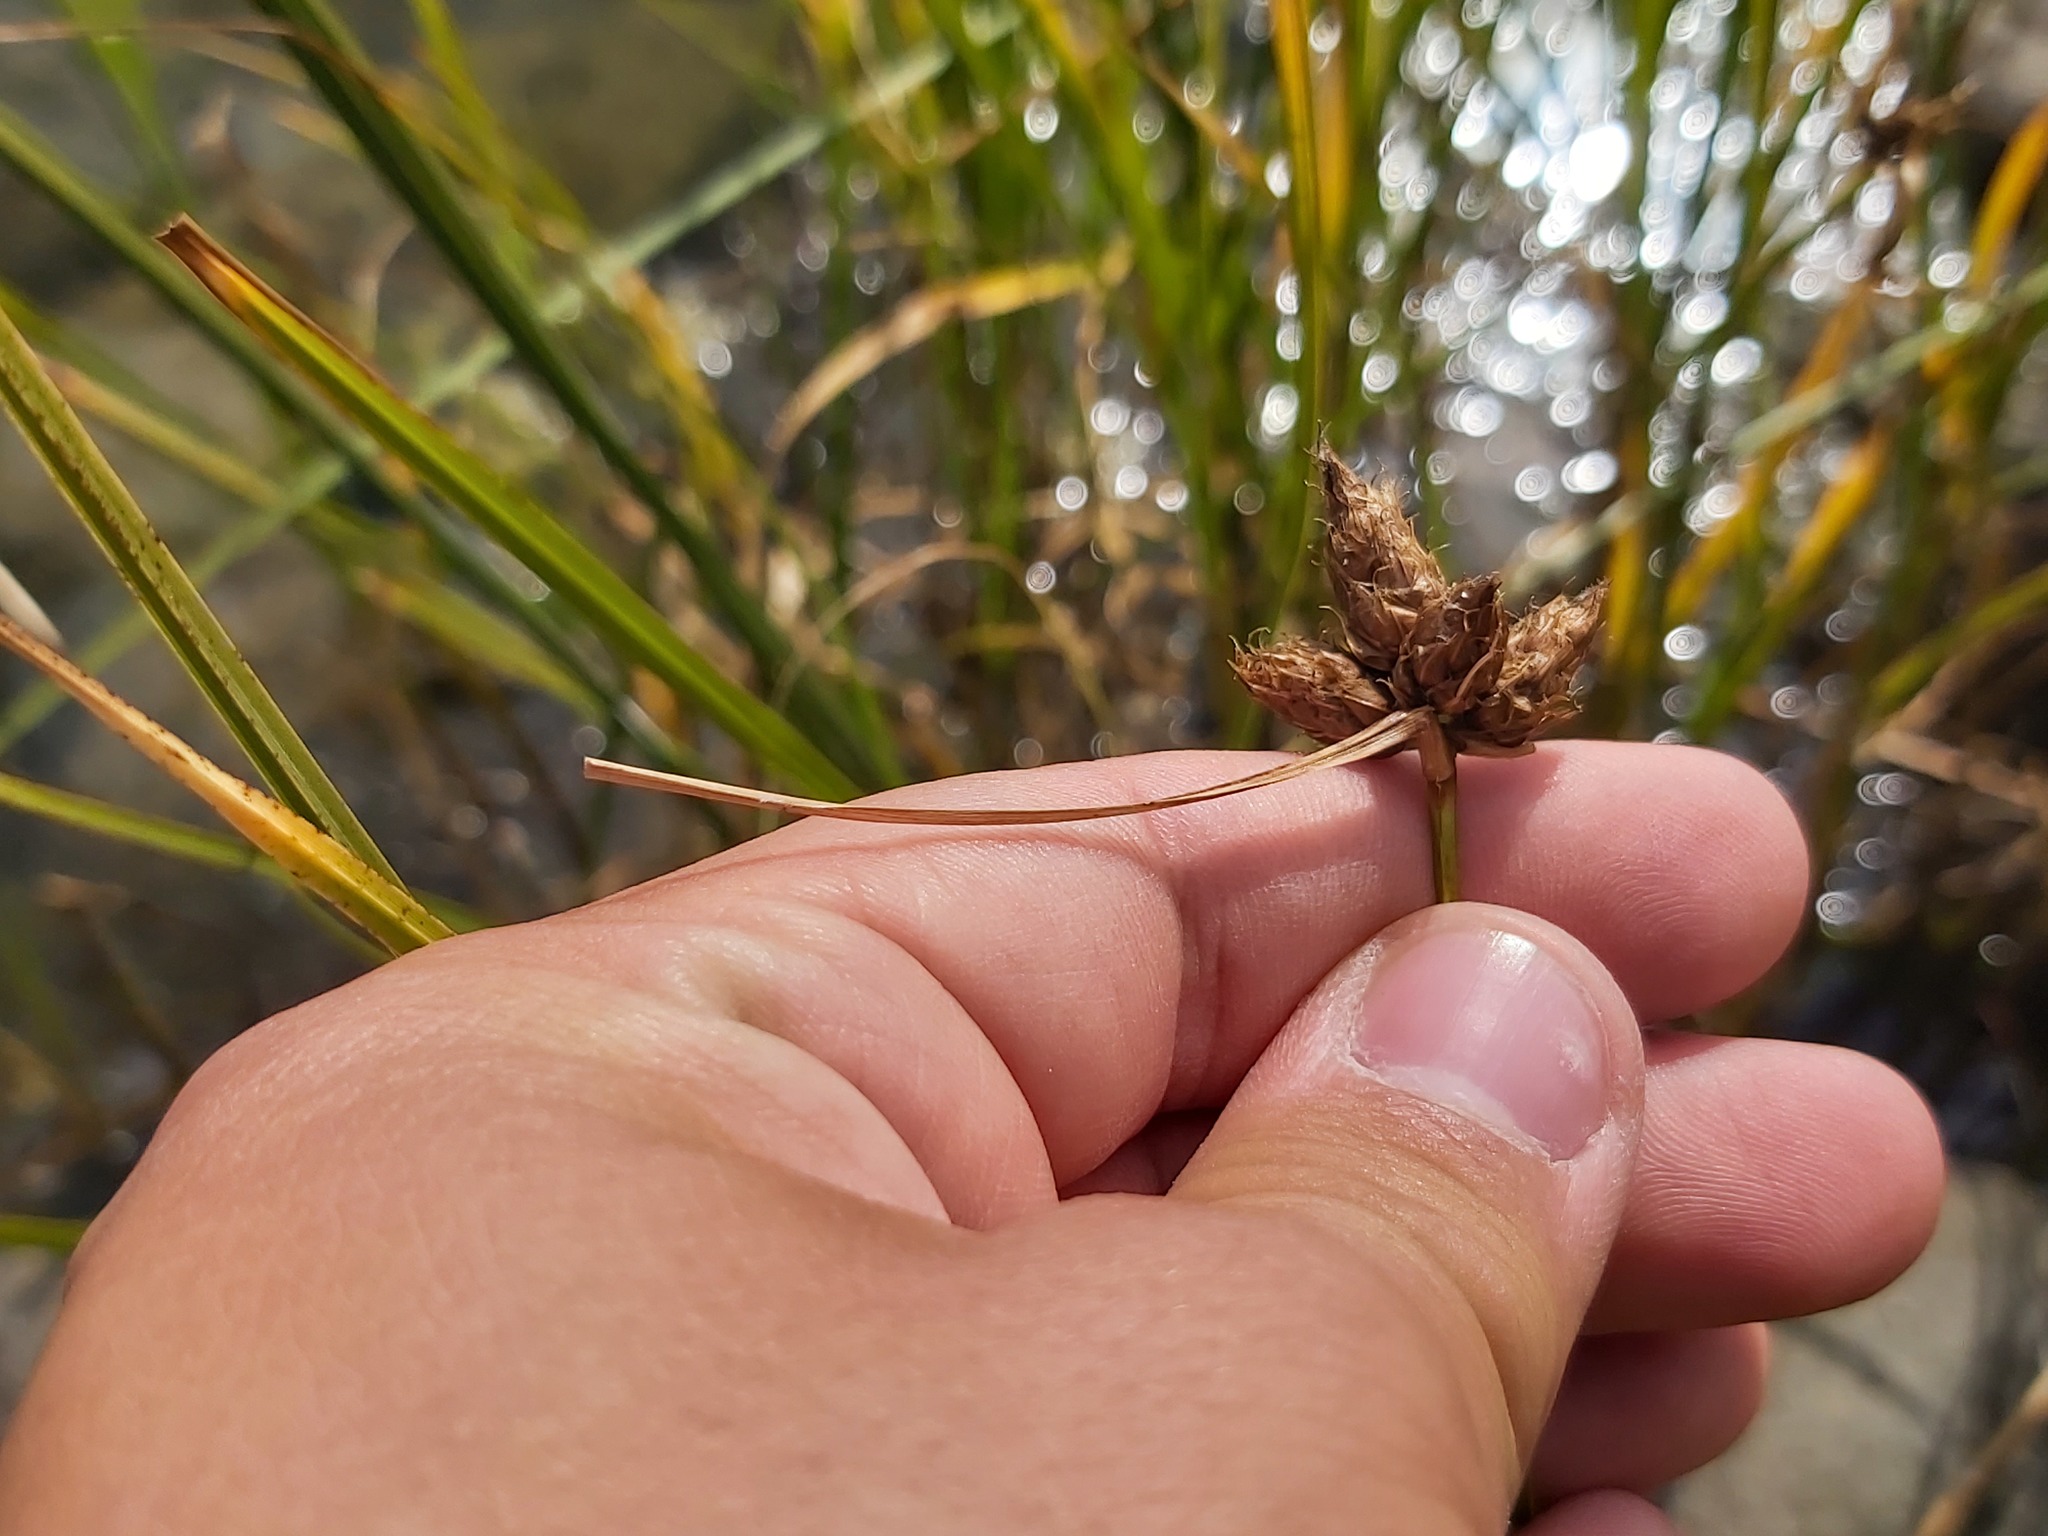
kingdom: Plantae
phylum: Tracheophyta
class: Liliopsida
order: Poales
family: Cyperaceae
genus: Bolboschoenus
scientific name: Bolboschoenus maritimus
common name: Sea club-rush
